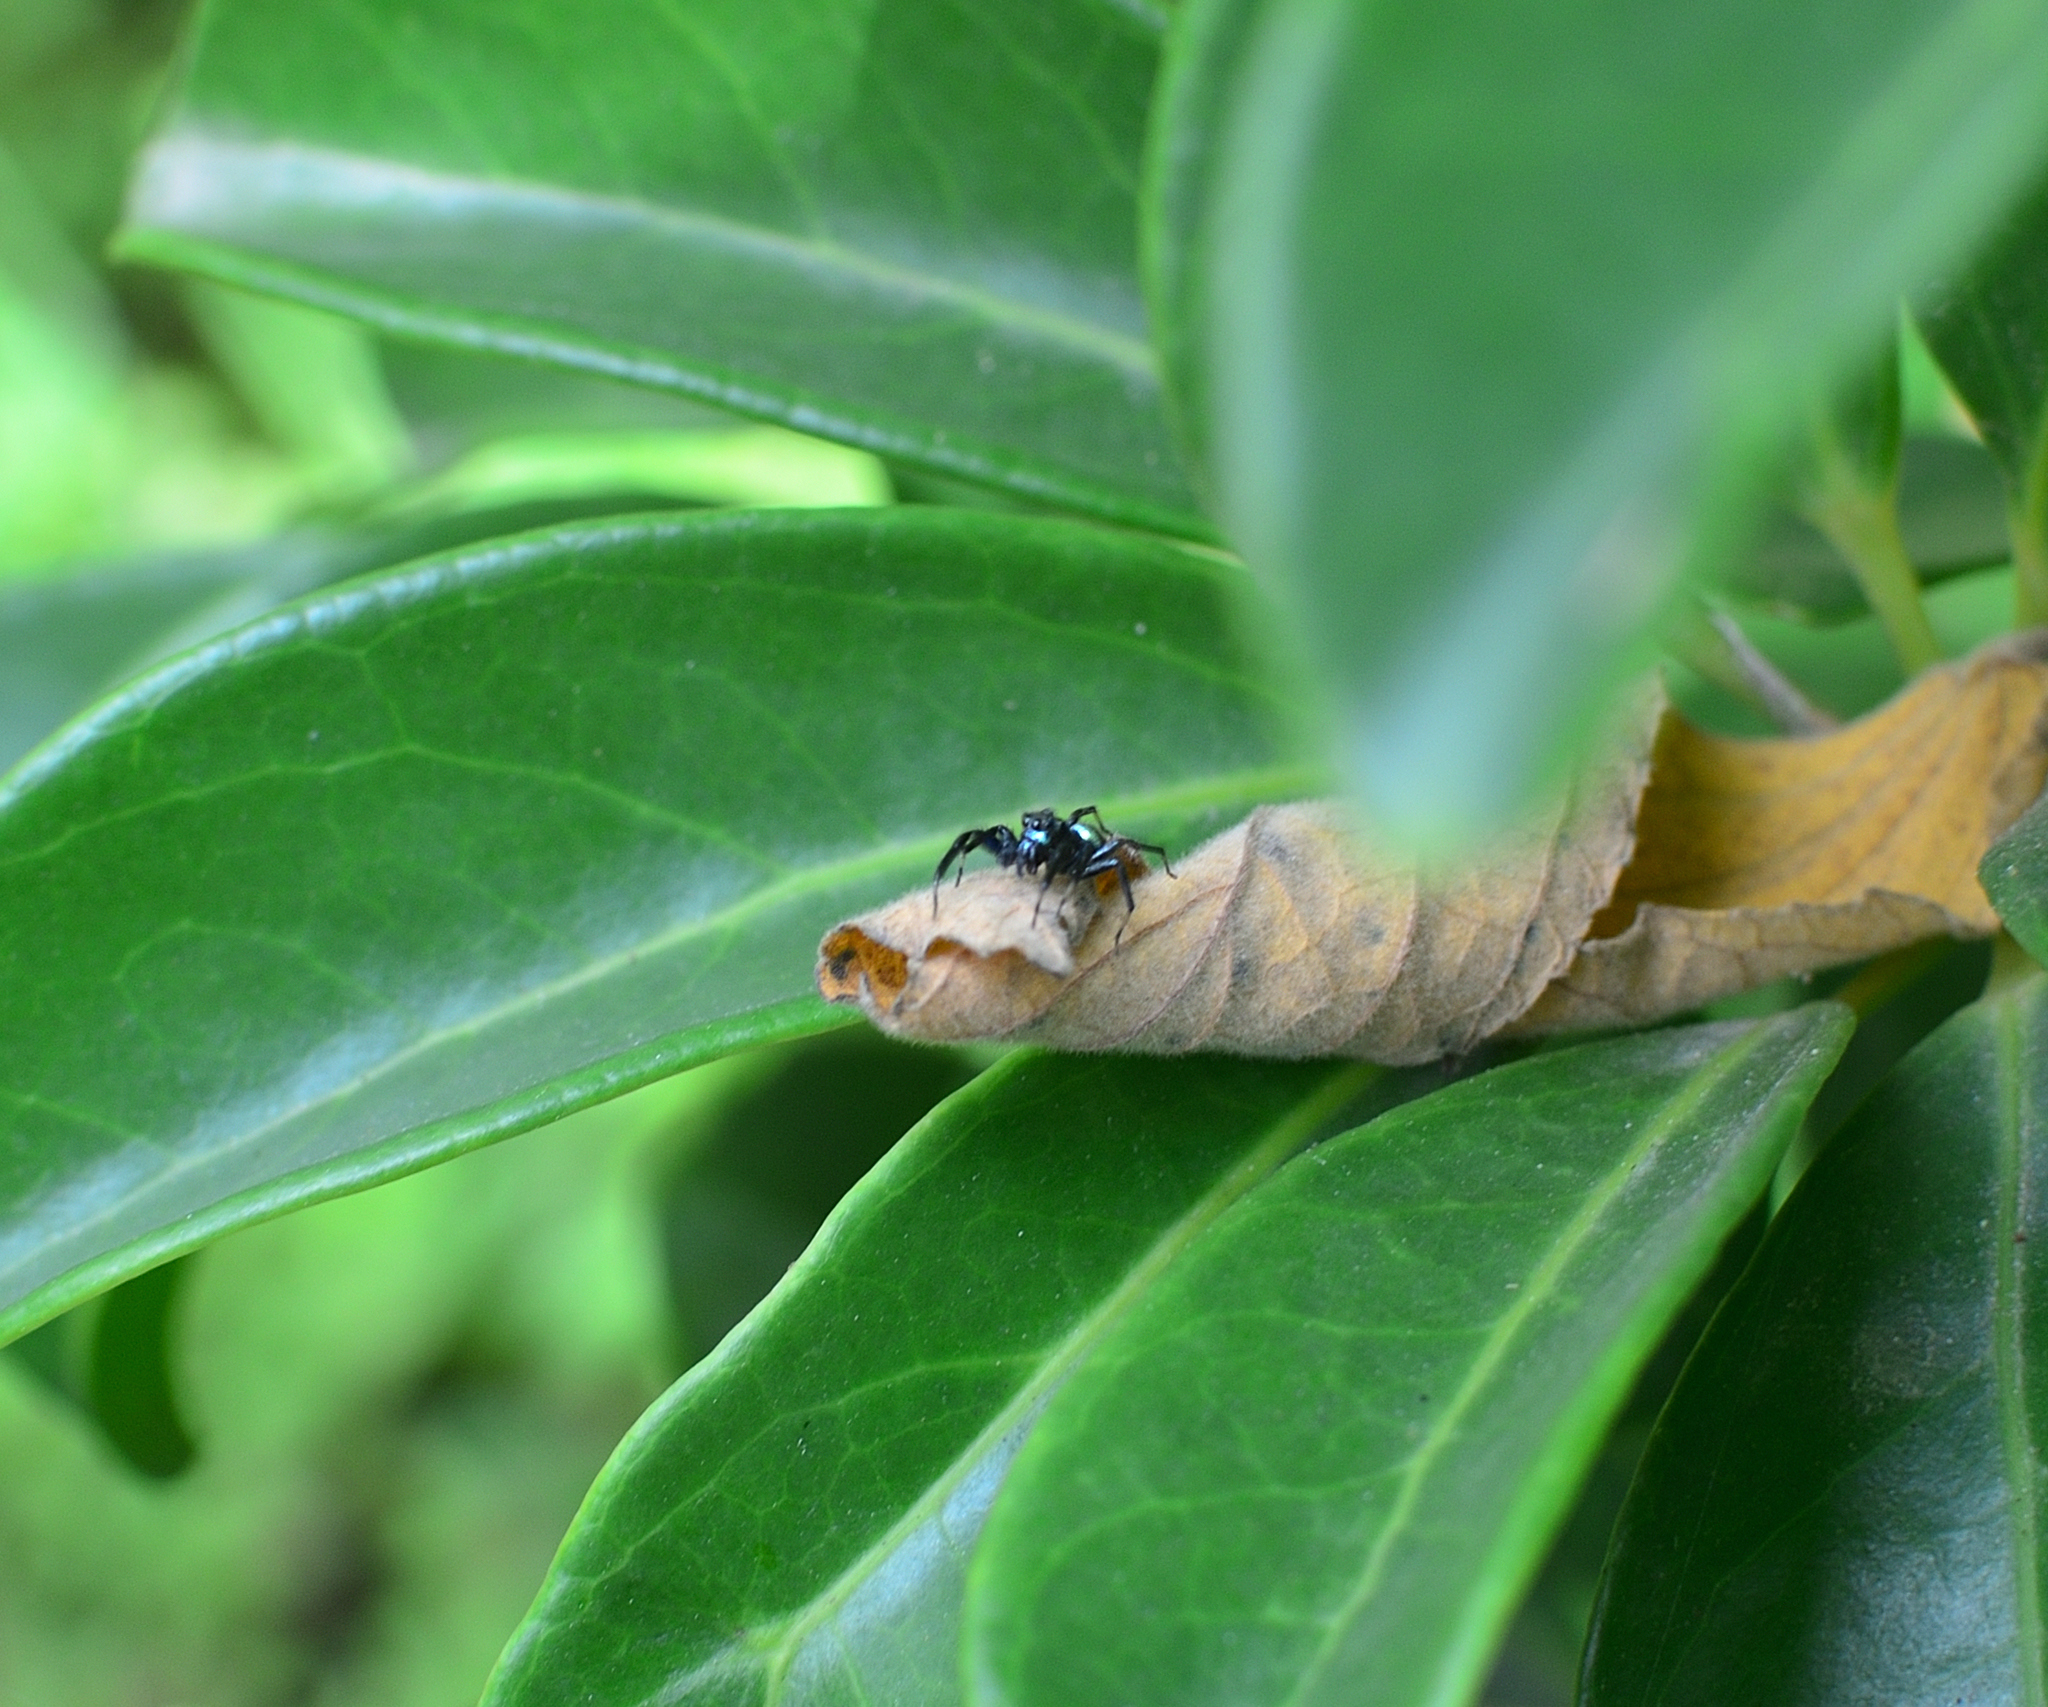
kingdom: Animalia
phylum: Arthropoda
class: Arachnida
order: Araneae
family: Salticidae
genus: Phintella
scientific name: Phintella vittata
